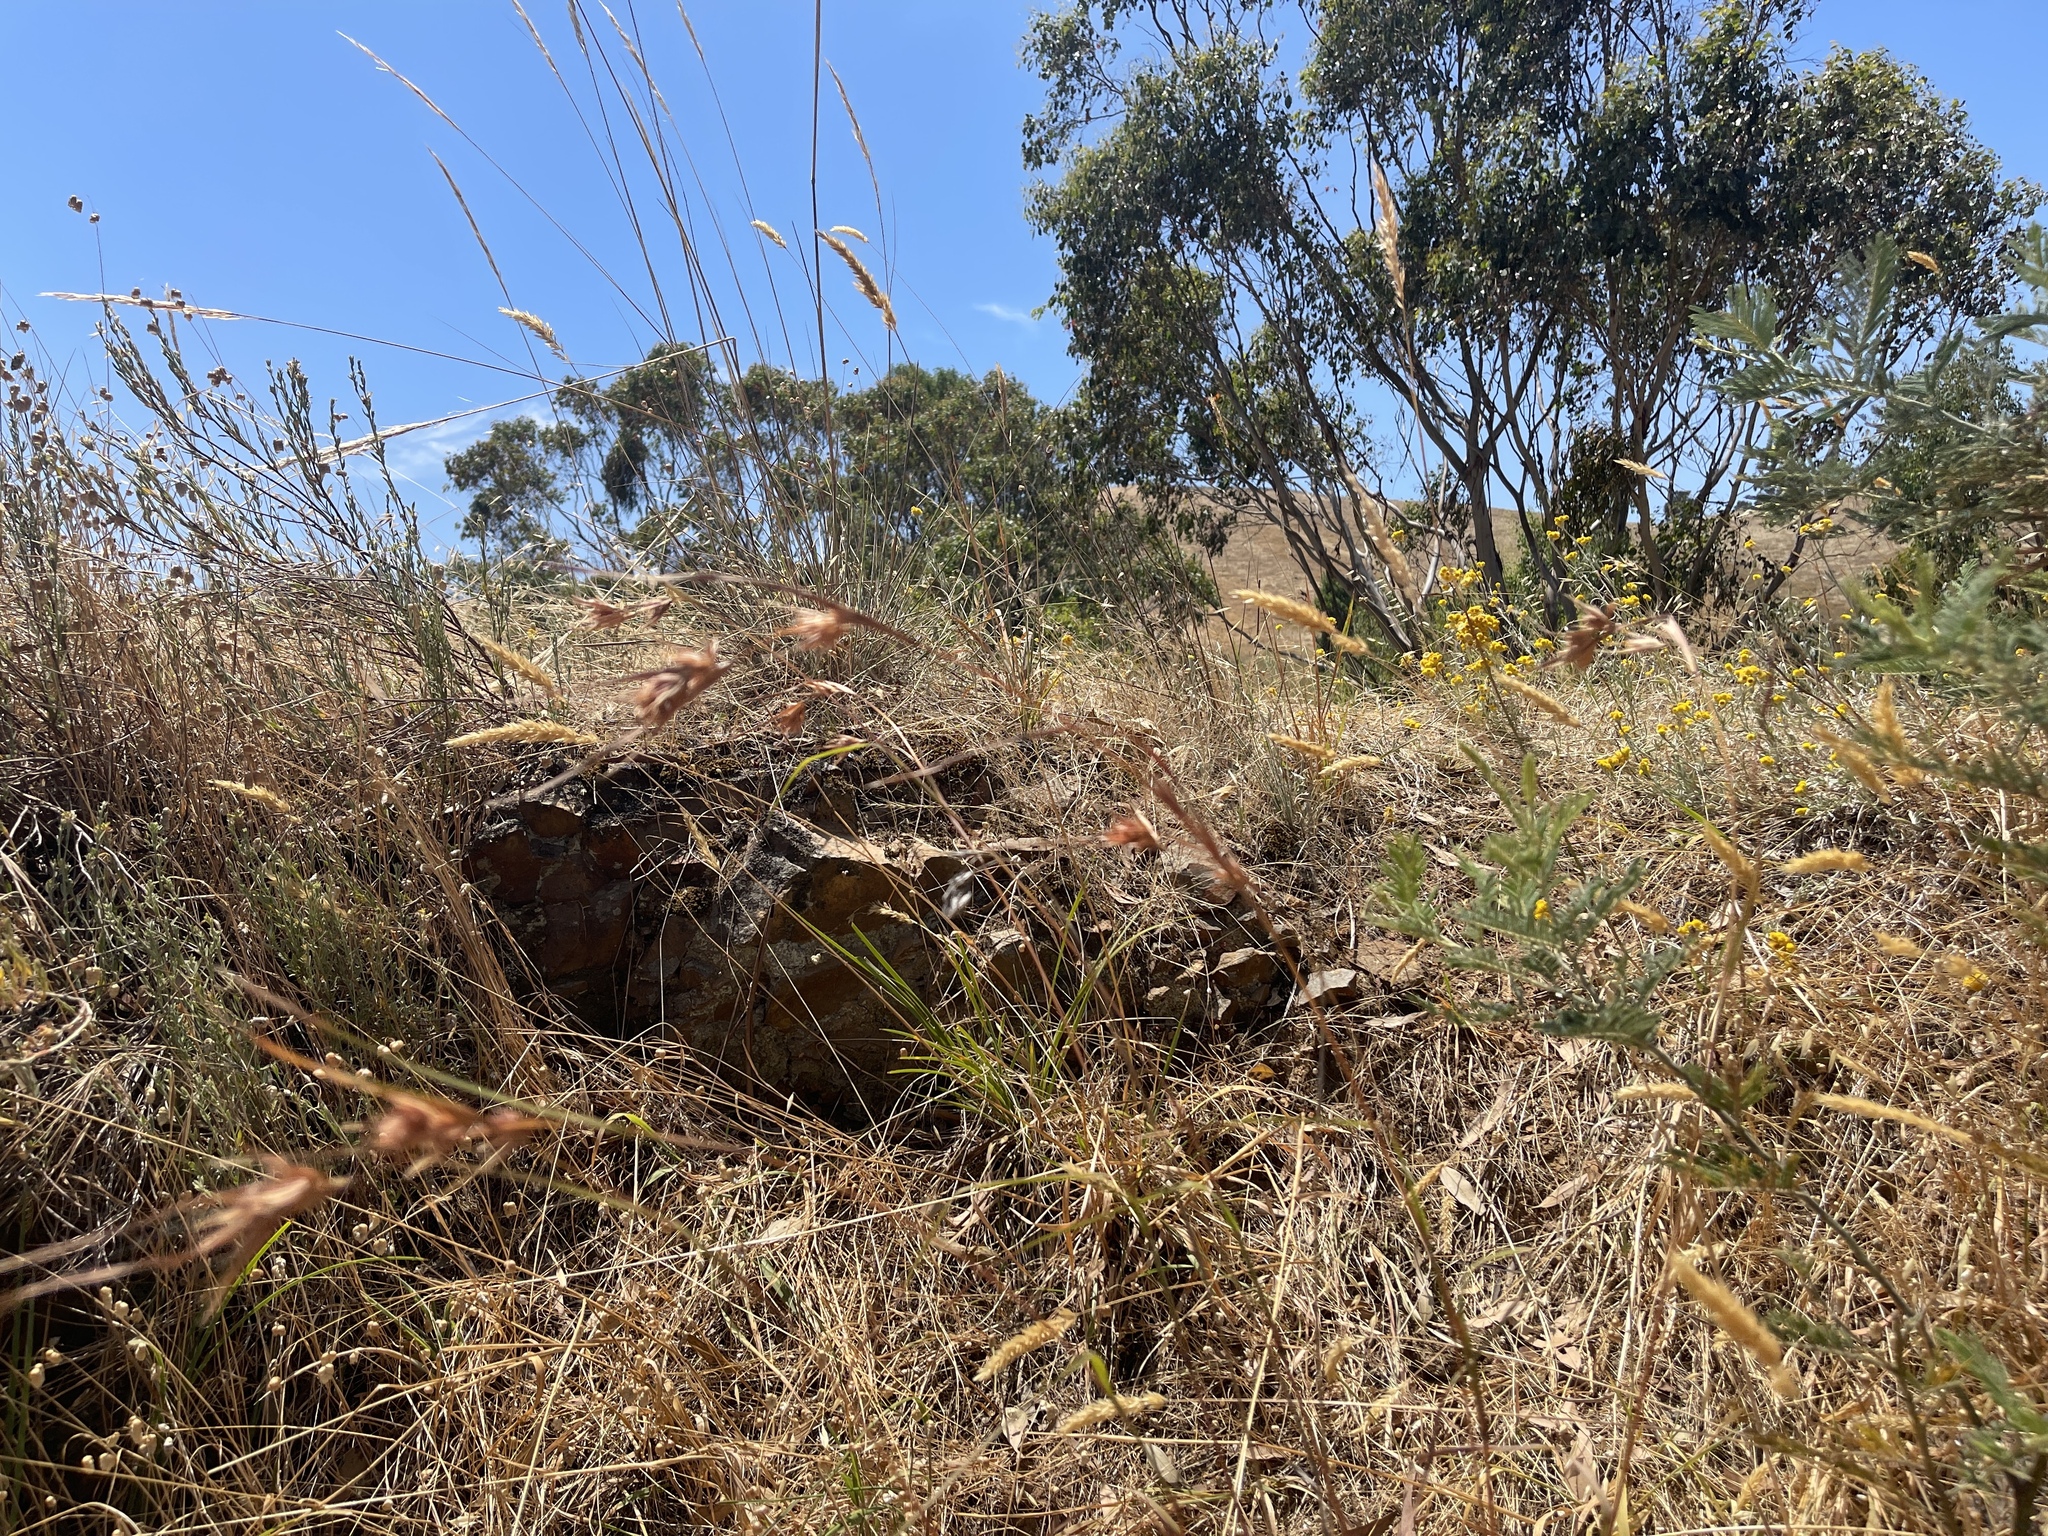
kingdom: Plantae
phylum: Tracheophyta
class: Liliopsida
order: Poales
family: Poaceae
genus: Themeda
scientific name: Themeda triandra
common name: Kangaroo grass
